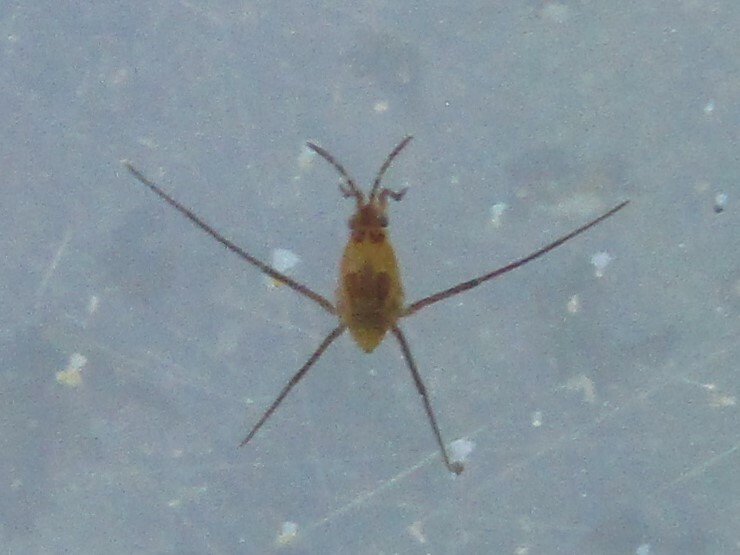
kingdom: Animalia
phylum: Arthropoda
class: Insecta
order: Hemiptera
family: Gerridae
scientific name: Gerridae
